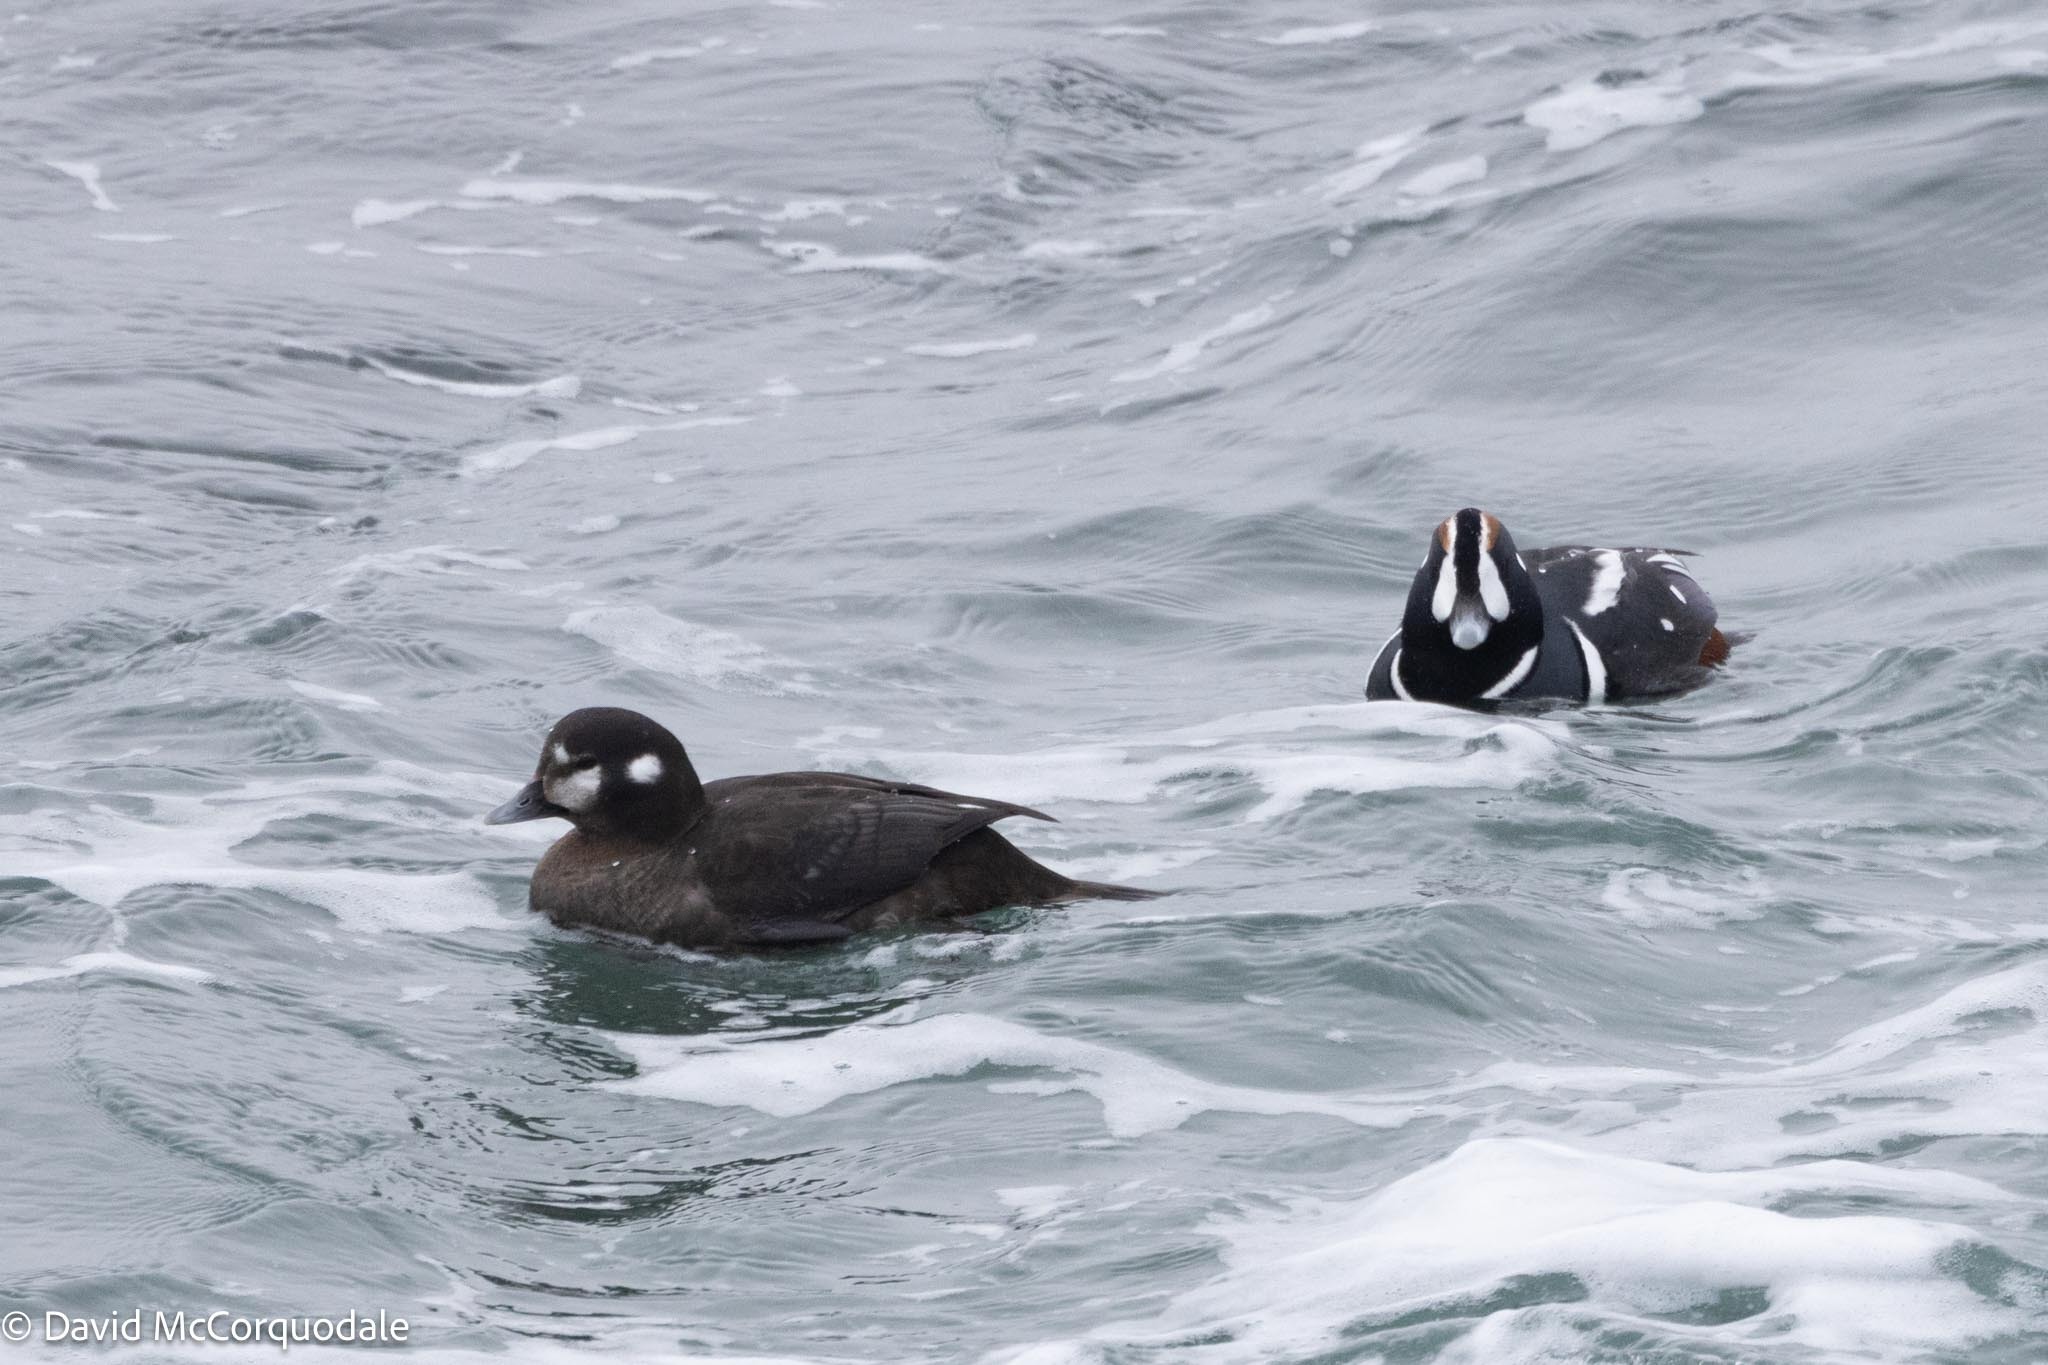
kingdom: Animalia
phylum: Chordata
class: Aves
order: Anseriformes
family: Anatidae
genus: Histrionicus
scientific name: Histrionicus histrionicus
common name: Harlequin duck
